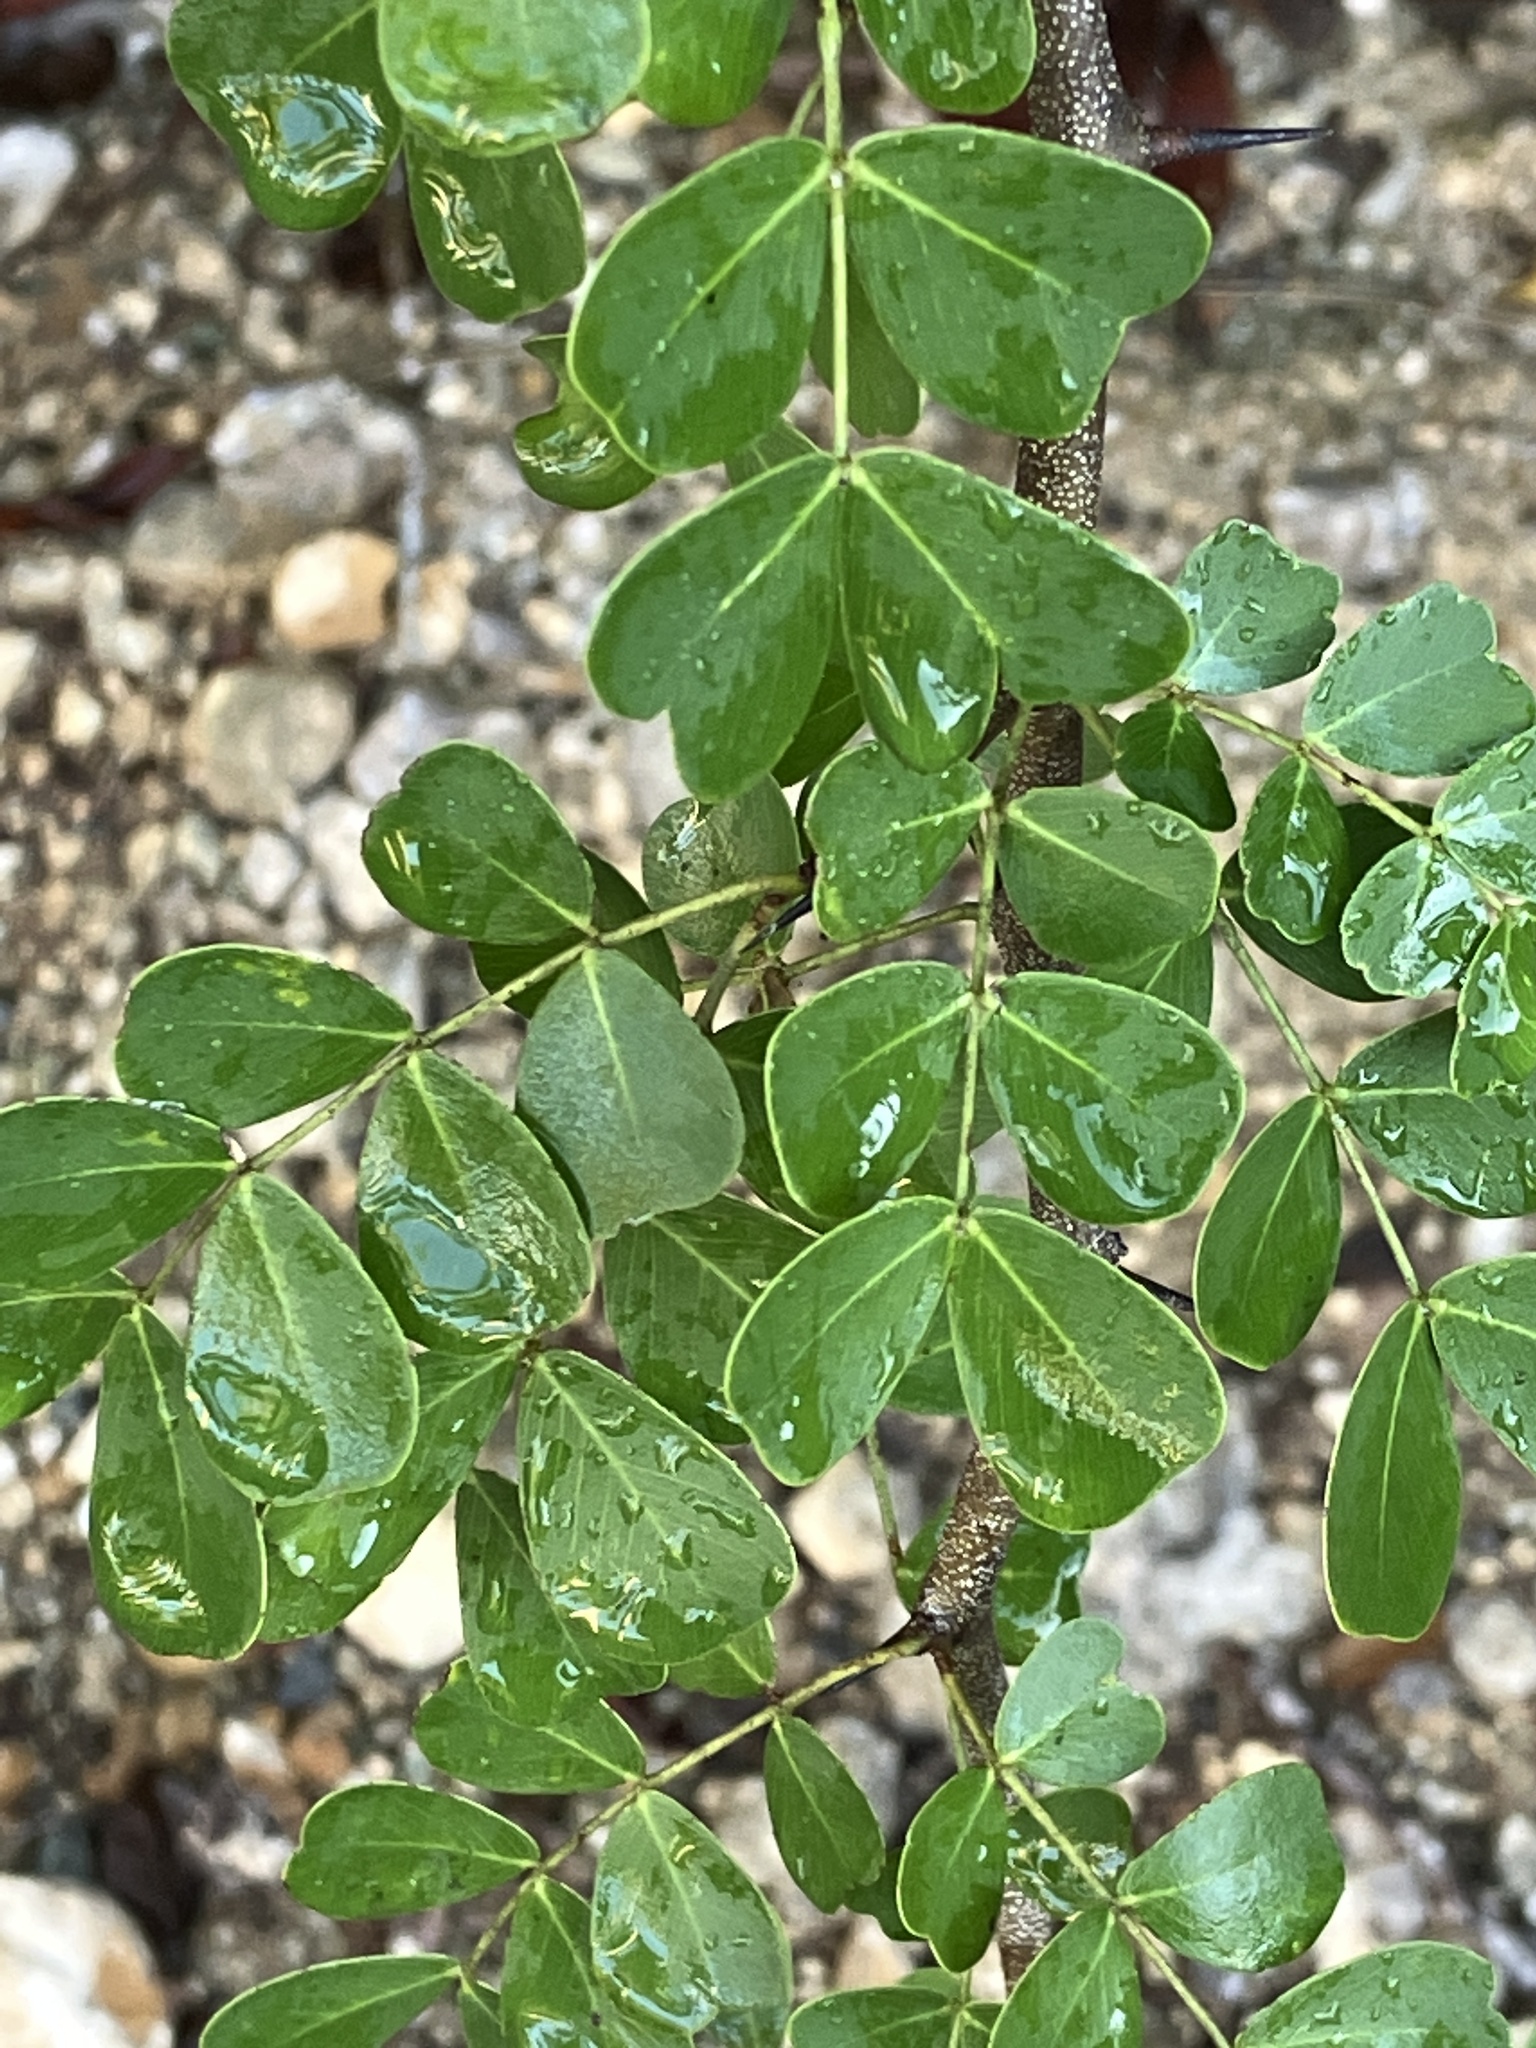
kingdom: Plantae
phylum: Tracheophyta
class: Magnoliopsida
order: Fabales
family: Fabaceae
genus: Haematoxylum
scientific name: Haematoxylum campechianum
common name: Logwood
